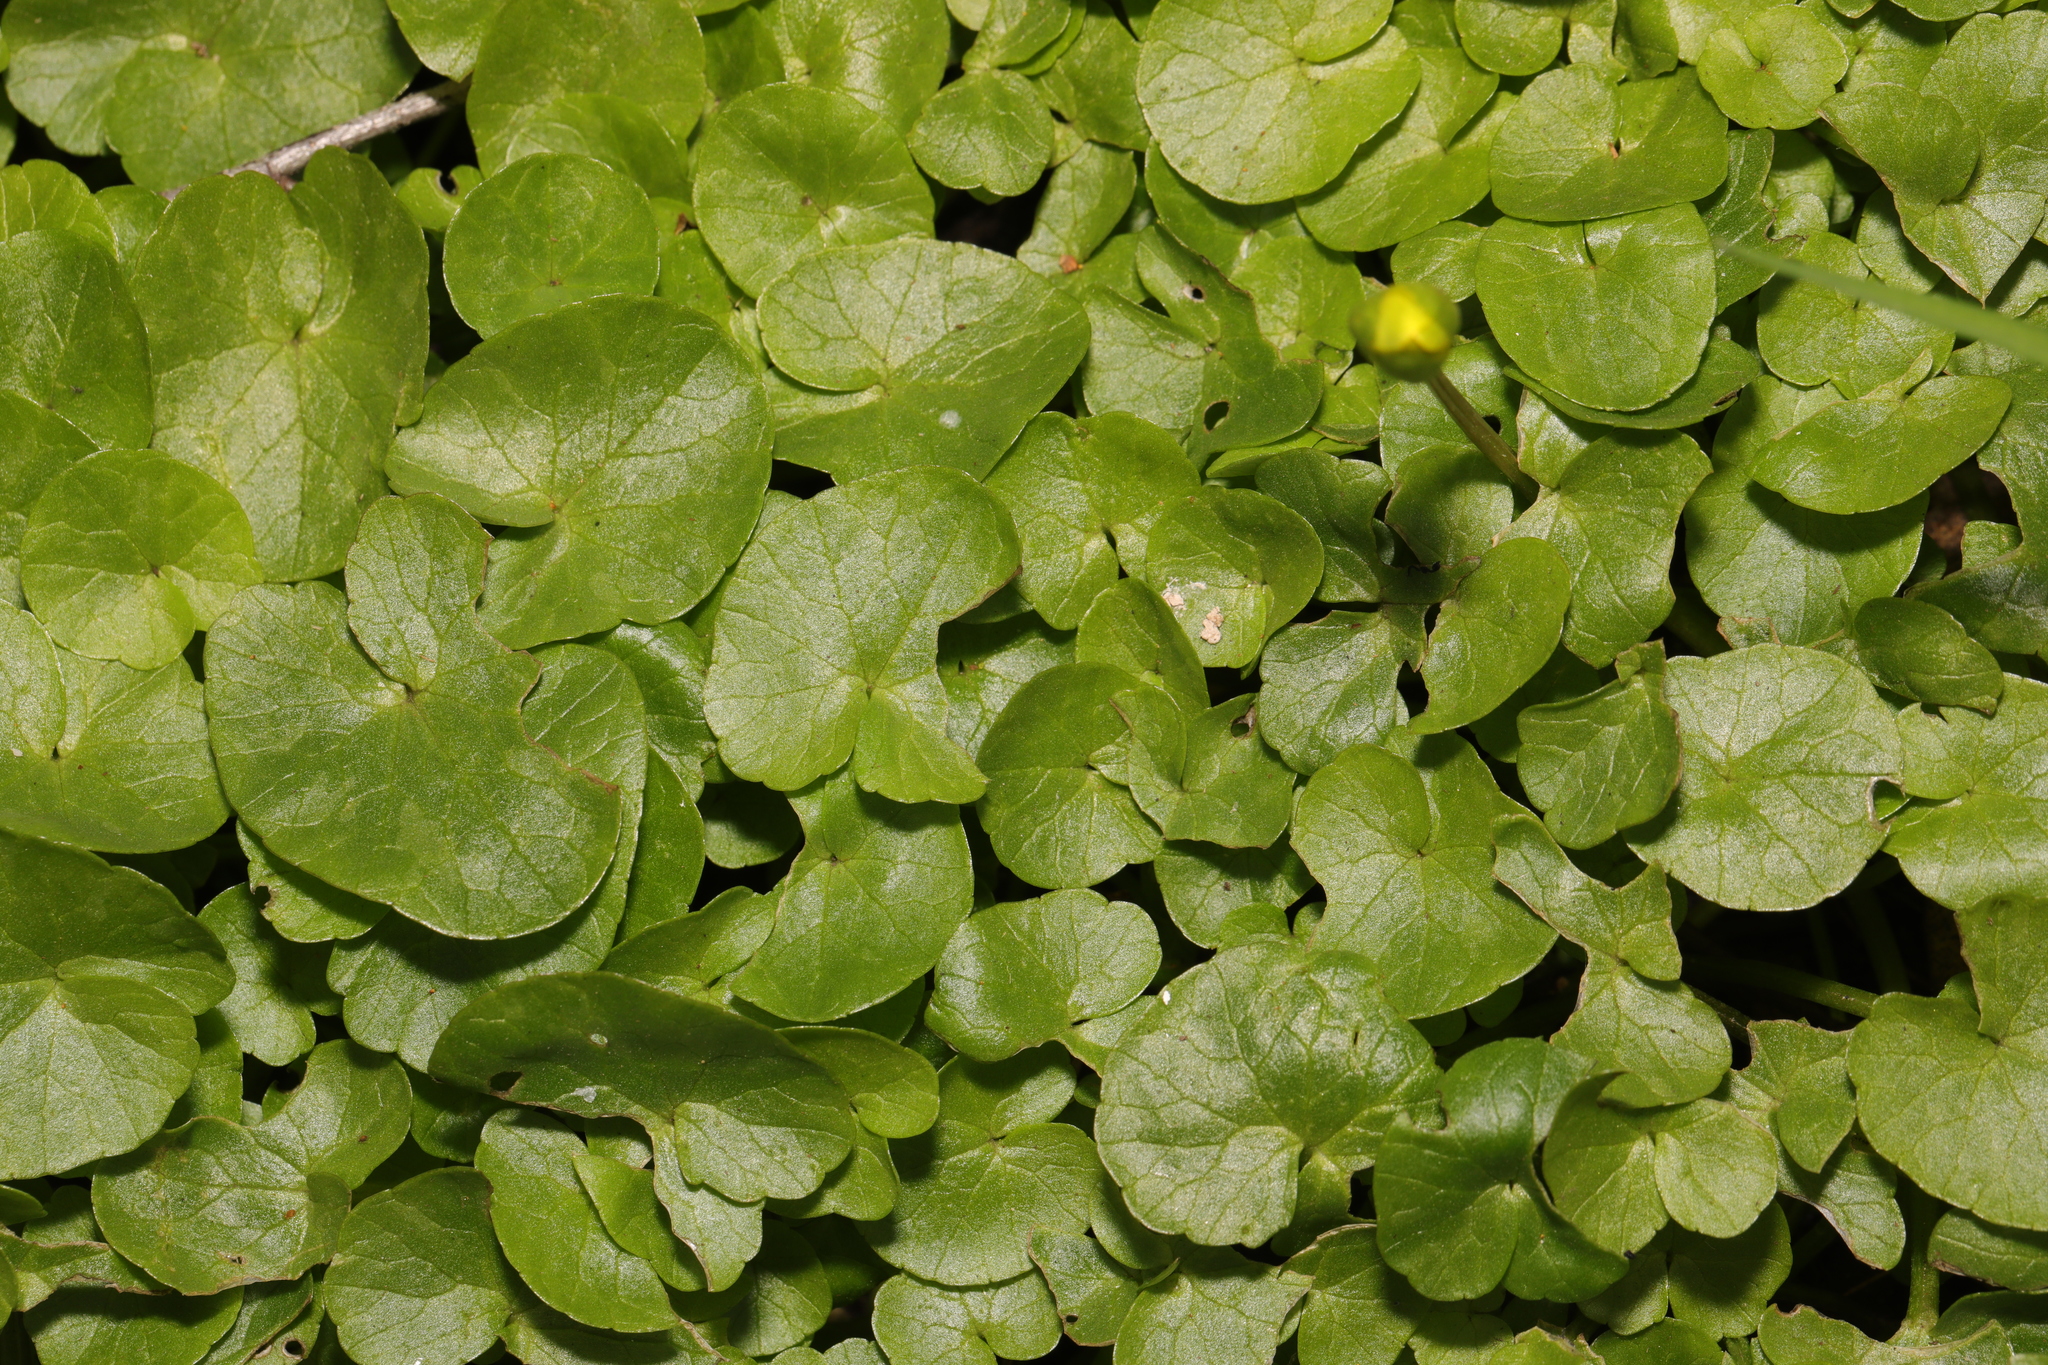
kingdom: Plantae
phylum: Tracheophyta
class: Magnoliopsida
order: Ranunculales
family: Ranunculaceae
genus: Ficaria
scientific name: Ficaria verna
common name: Lesser celandine
